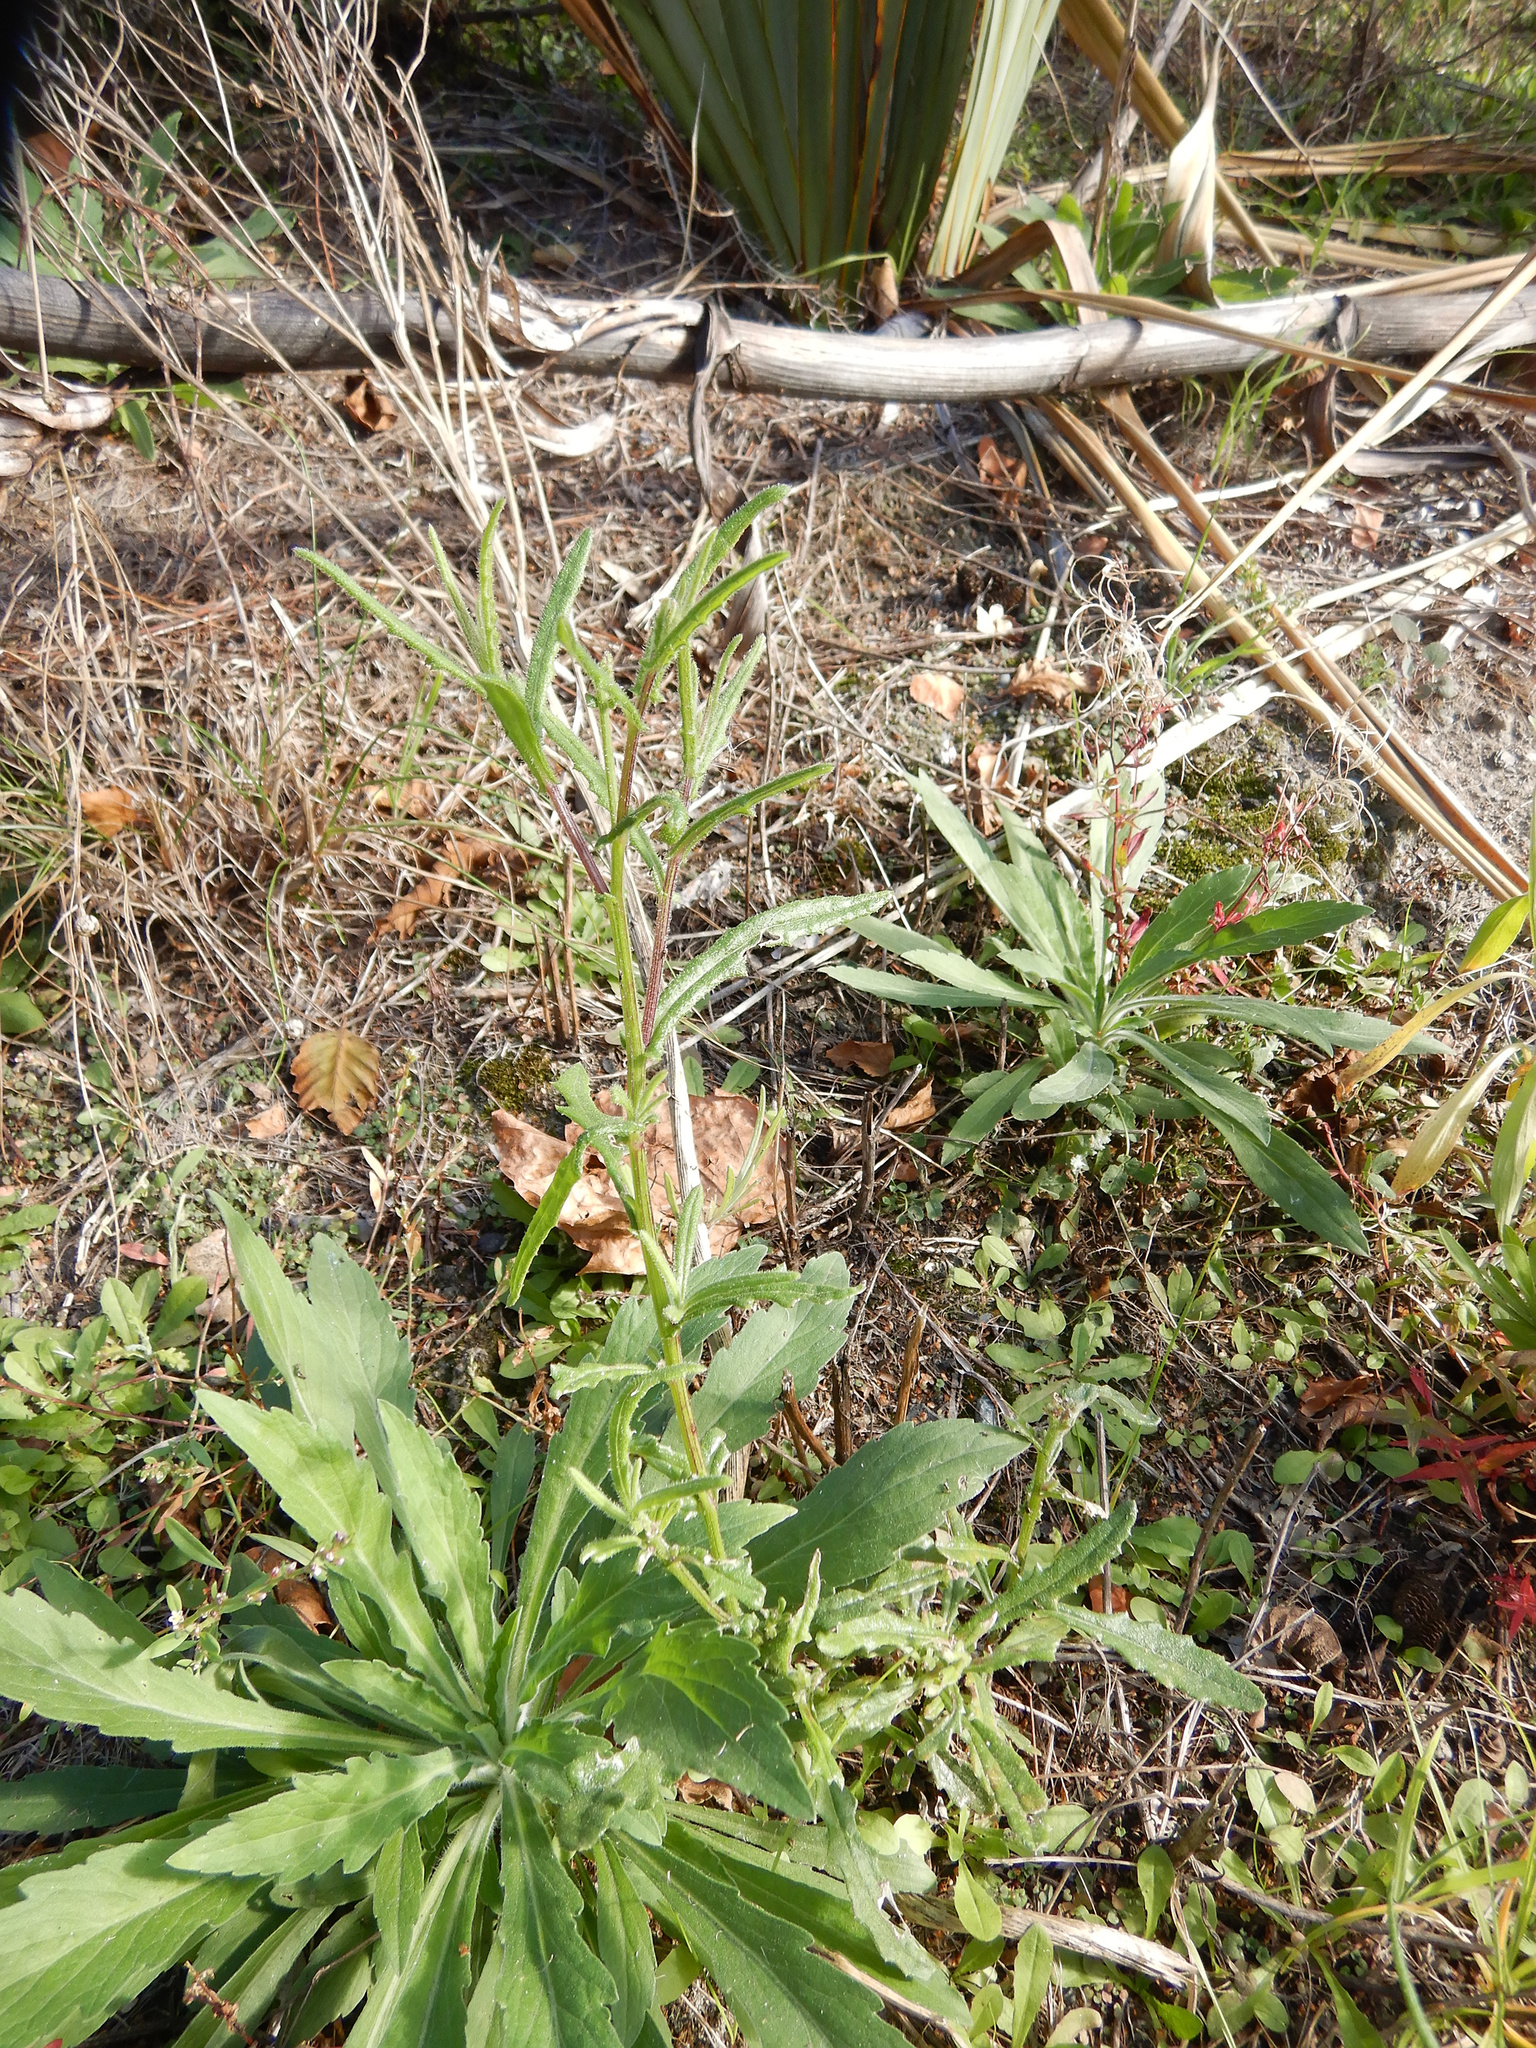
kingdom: Plantae
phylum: Tracheophyta
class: Magnoliopsida
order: Asterales
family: Asteraceae
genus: Senecio
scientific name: Senecio hispidulus
